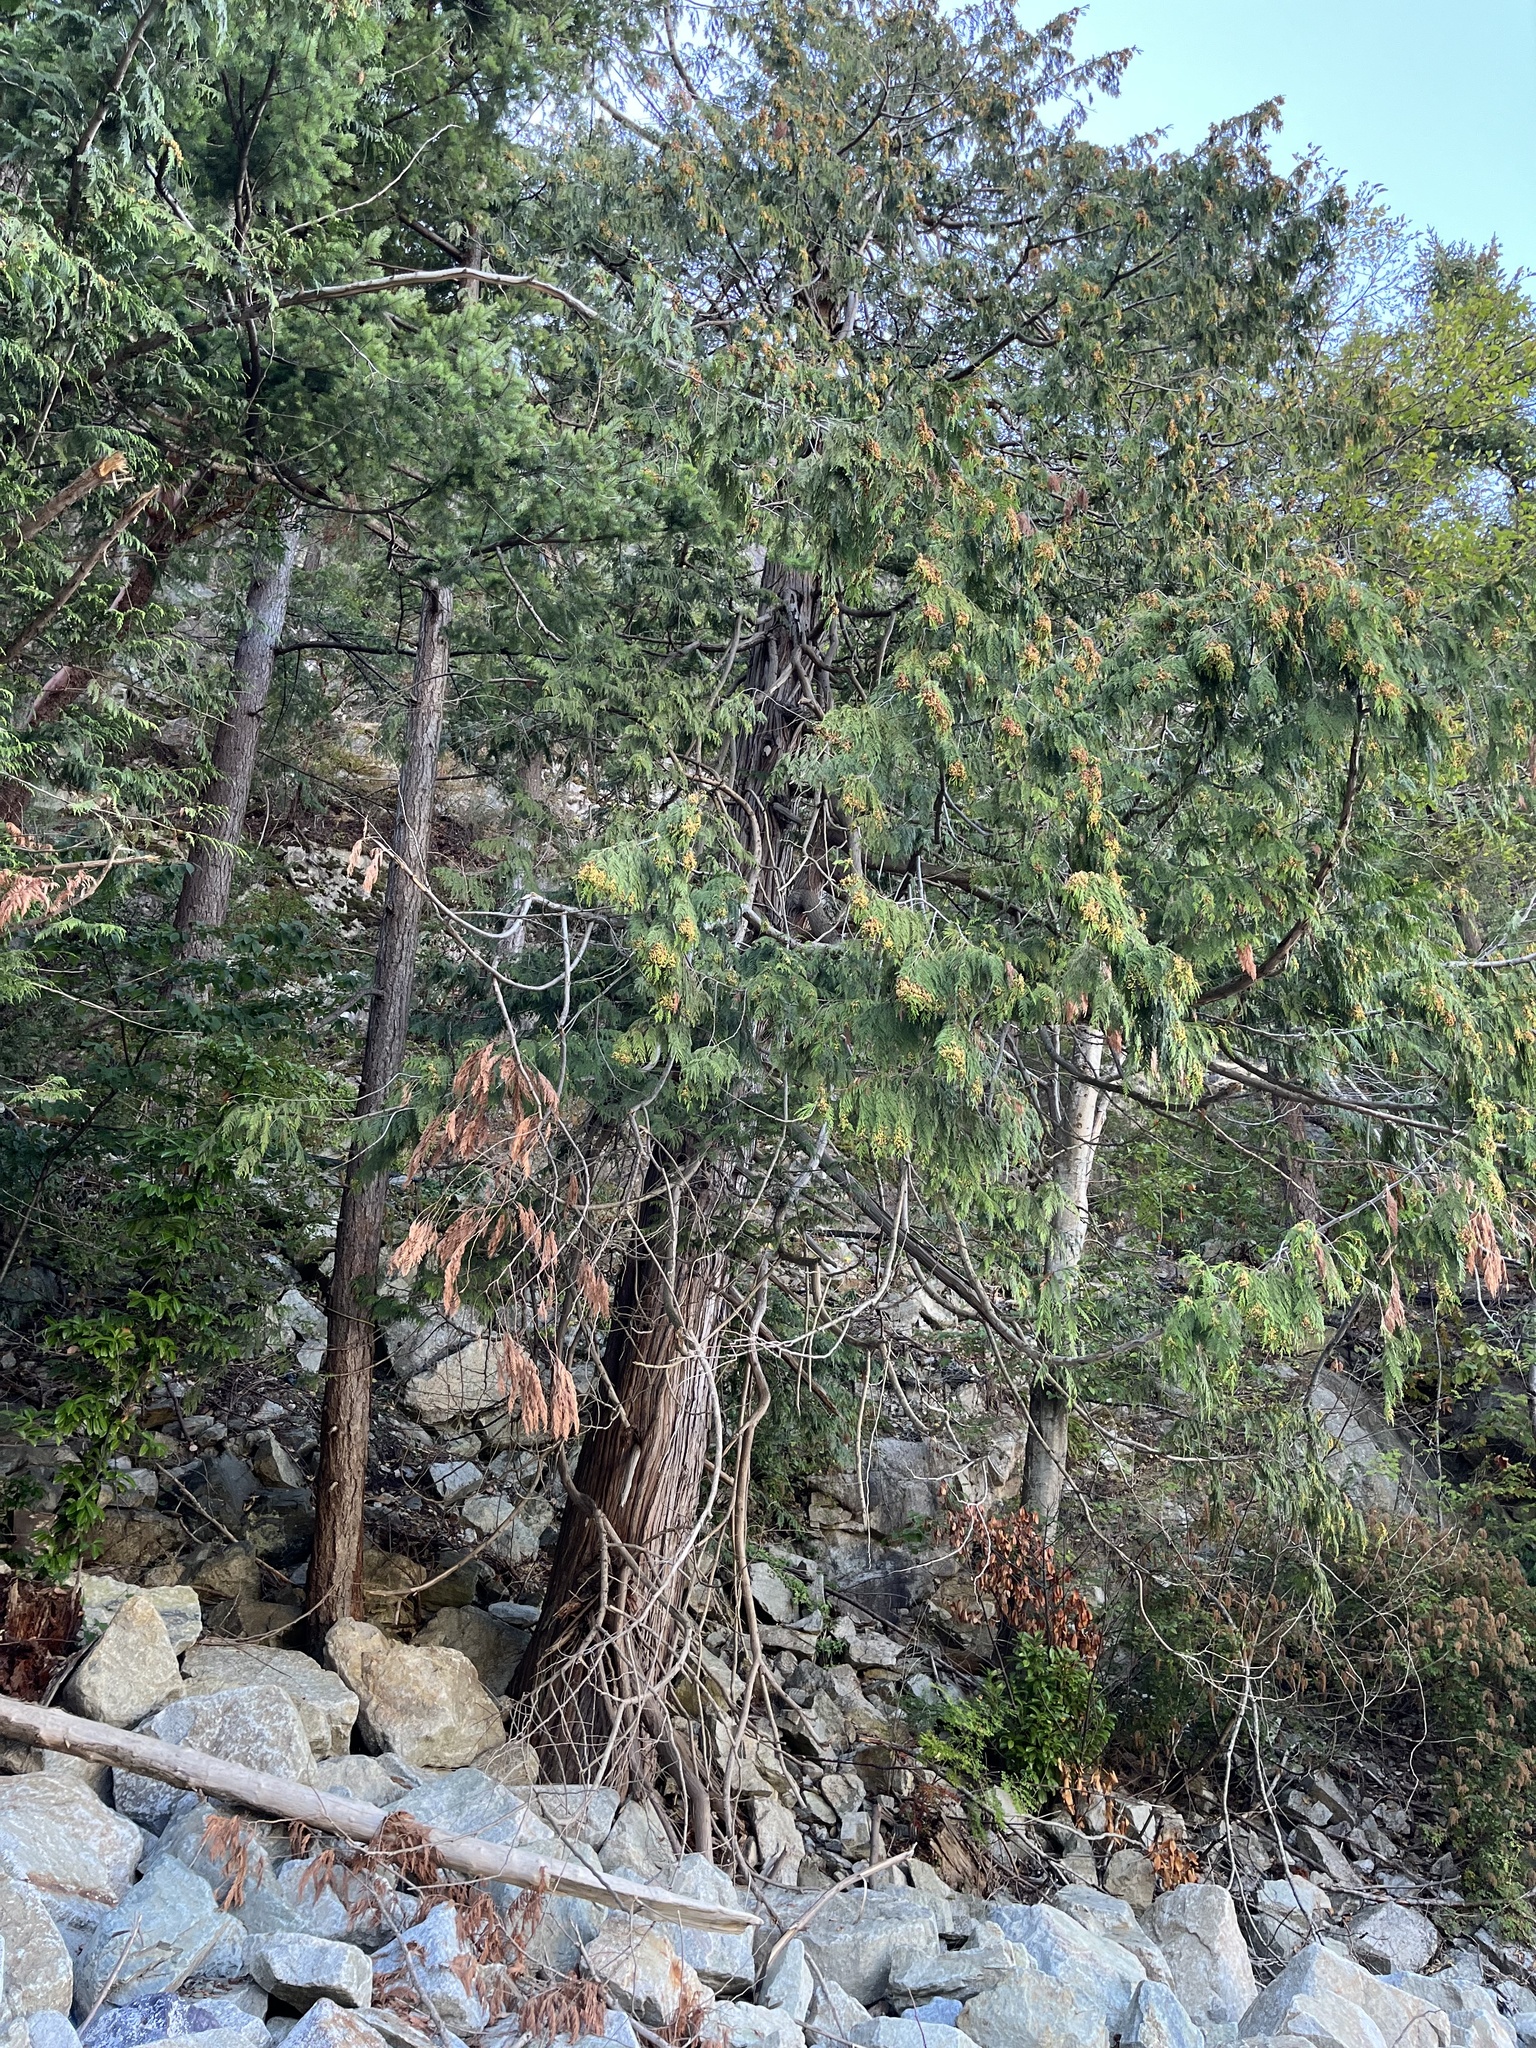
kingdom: Plantae
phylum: Tracheophyta
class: Pinopsida
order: Pinales
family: Cupressaceae
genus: Thuja
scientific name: Thuja plicata
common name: Western red-cedar
